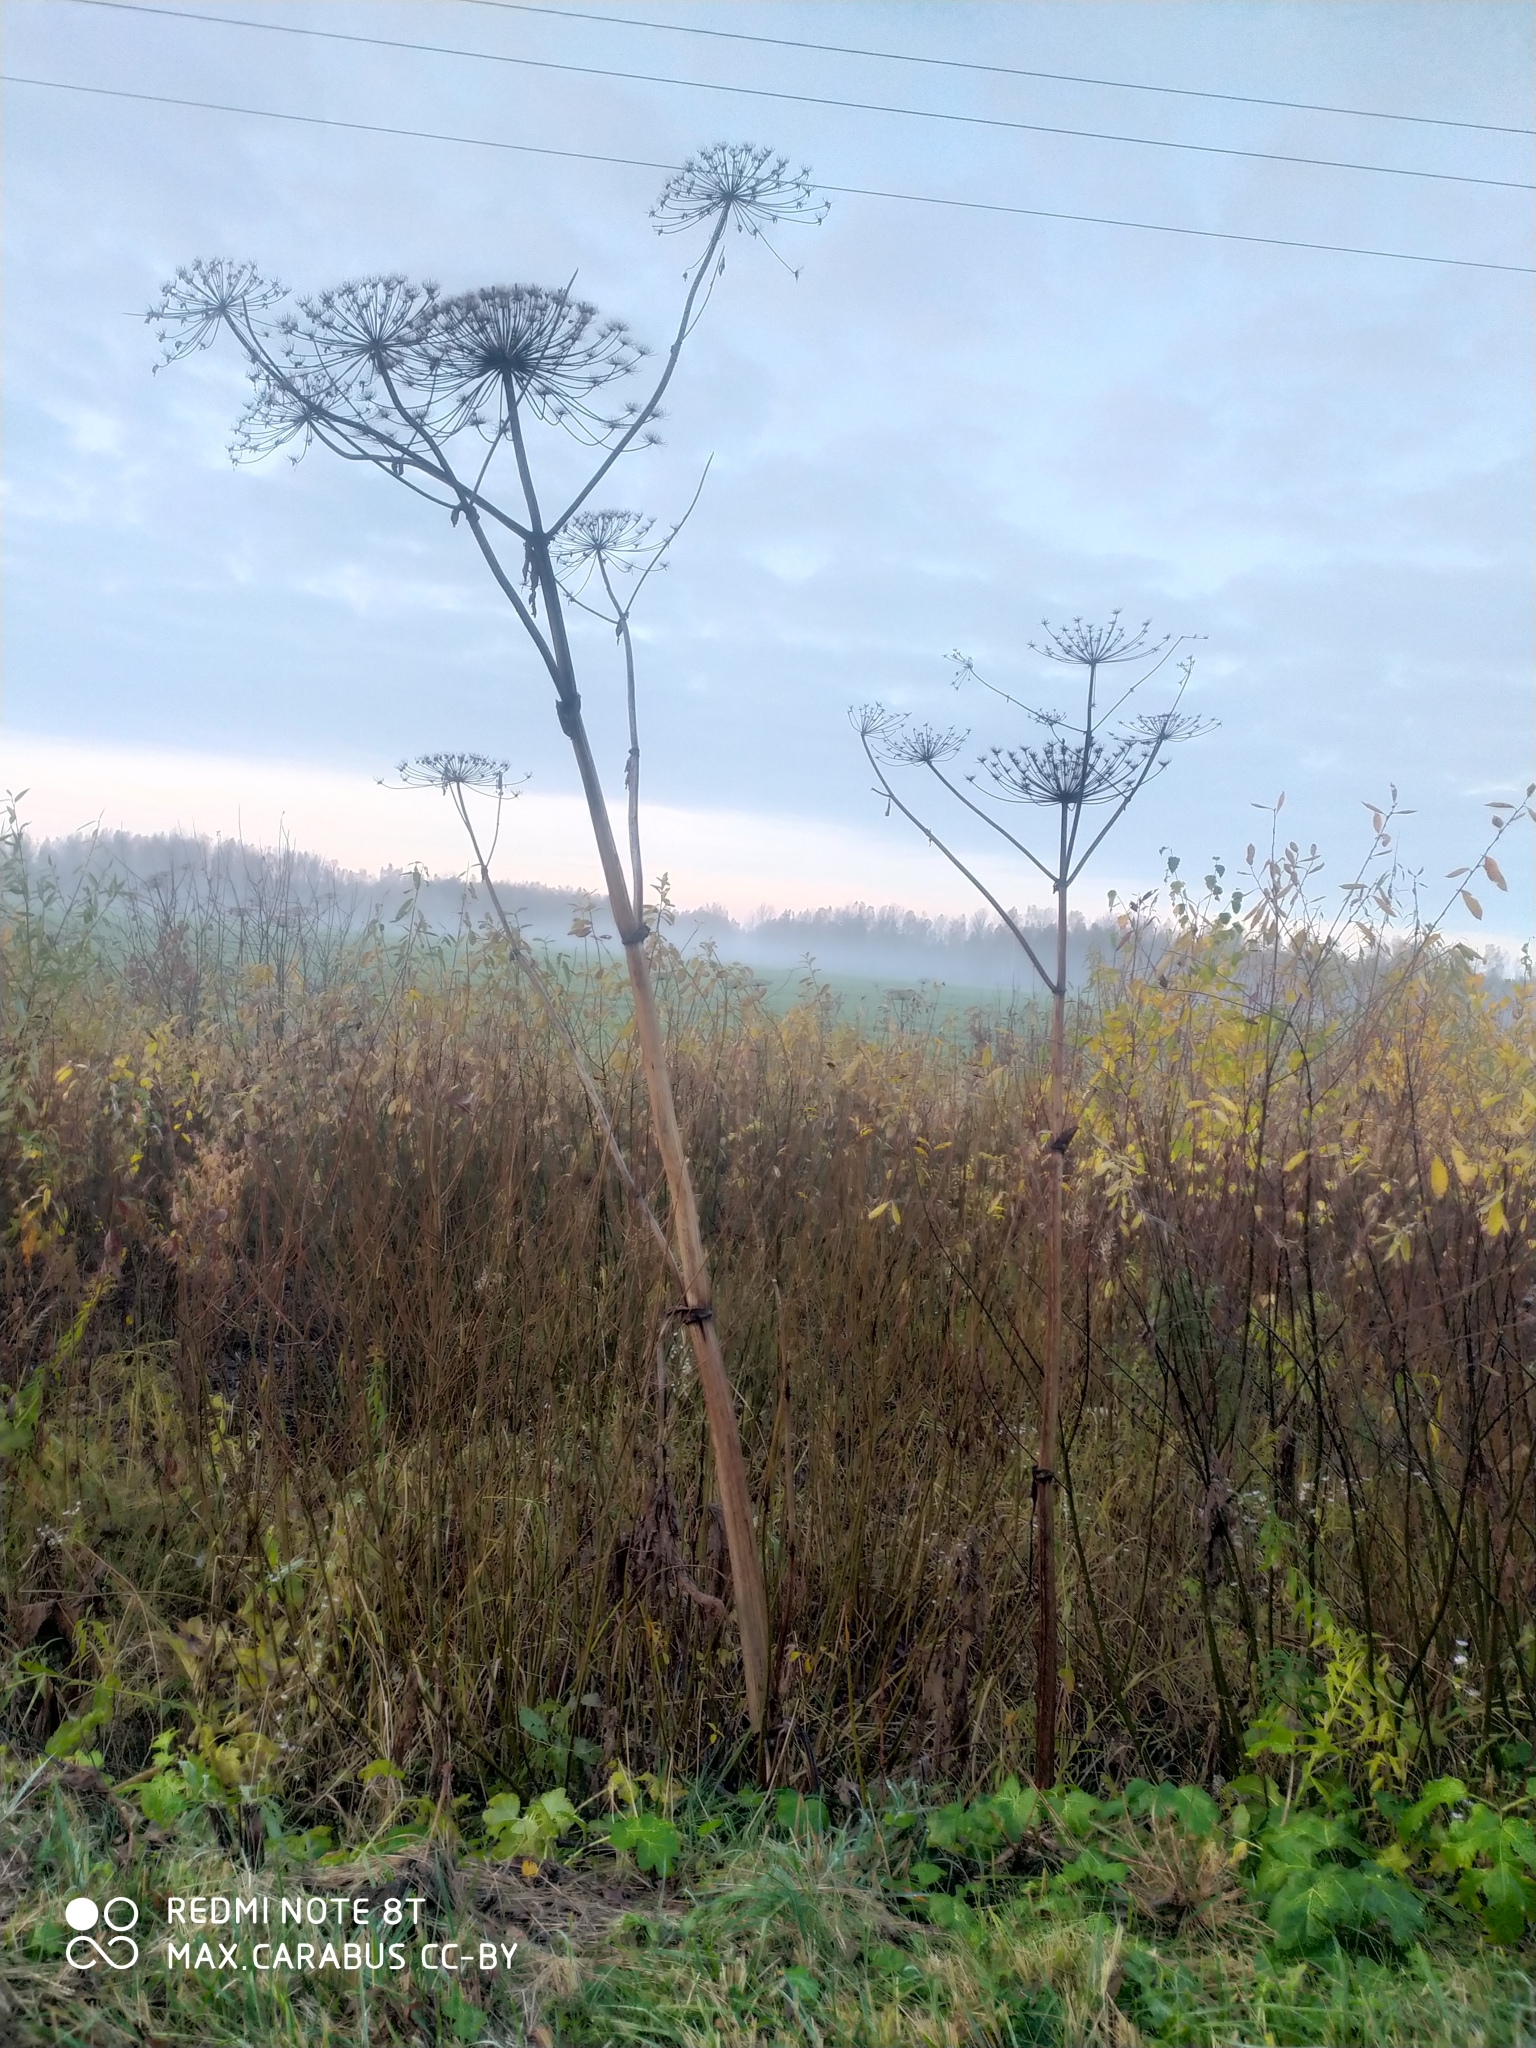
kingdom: Plantae
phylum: Tracheophyta
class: Magnoliopsida
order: Apiales
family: Apiaceae
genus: Heracleum
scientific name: Heracleum sosnowskyi
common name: Sosnowsky's hogweed
